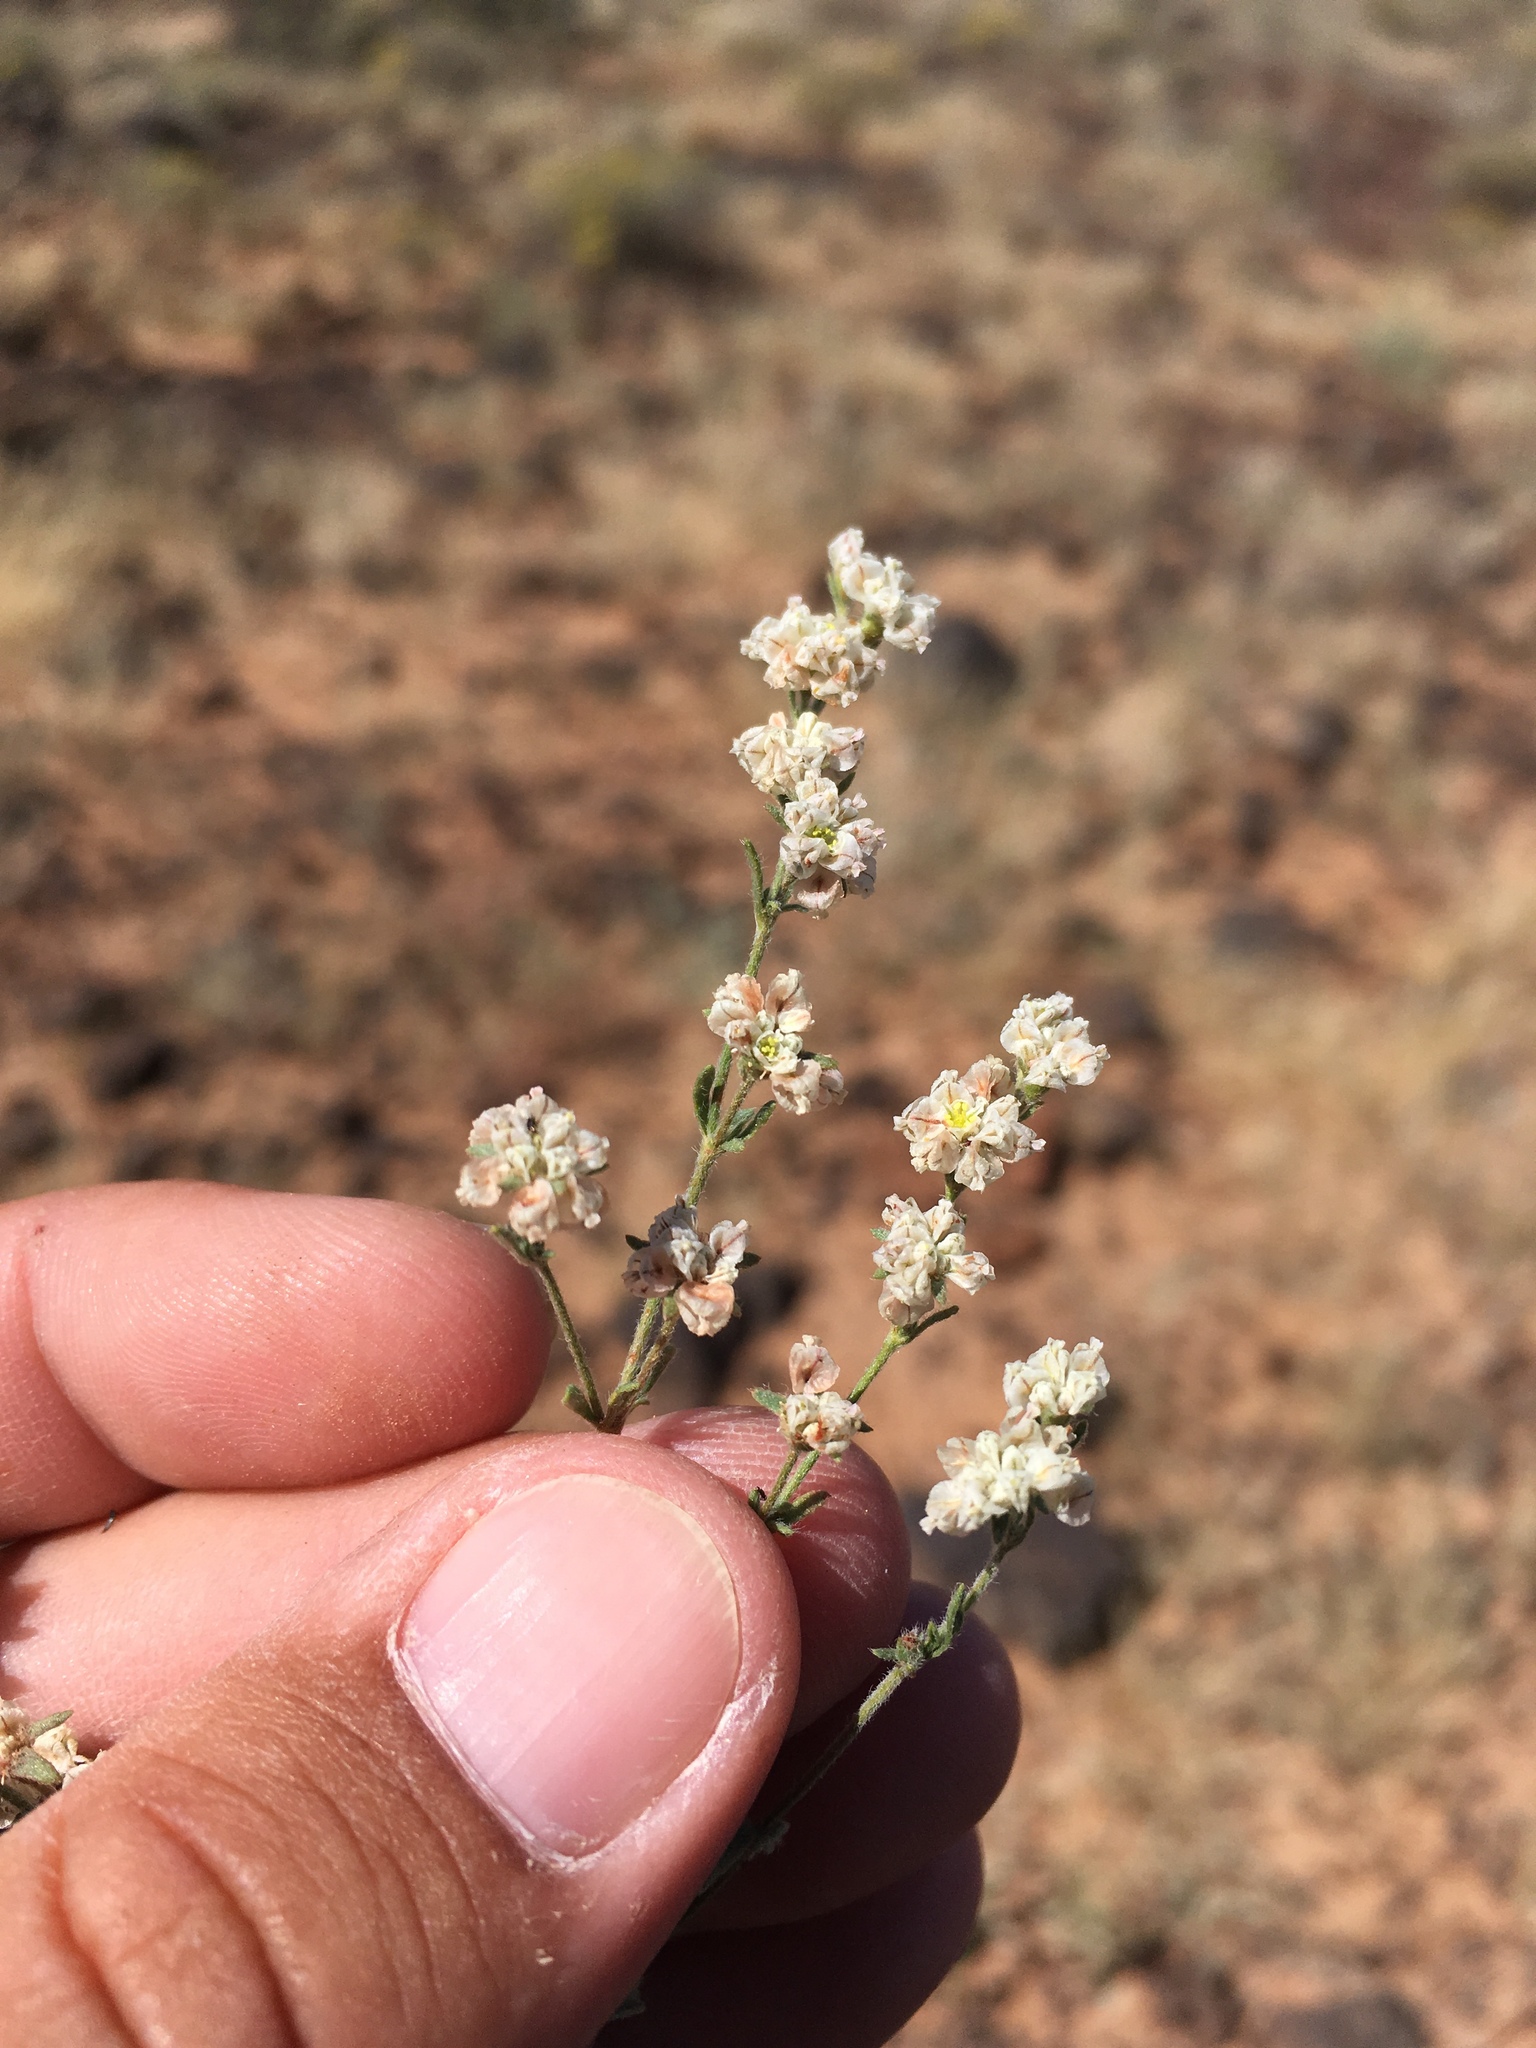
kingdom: Plantae
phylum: Tracheophyta
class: Magnoliopsida
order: Caryophyllales
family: Polygonaceae
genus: Eriogonum
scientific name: Eriogonum abertianum
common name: Abert's wild buckwheat
